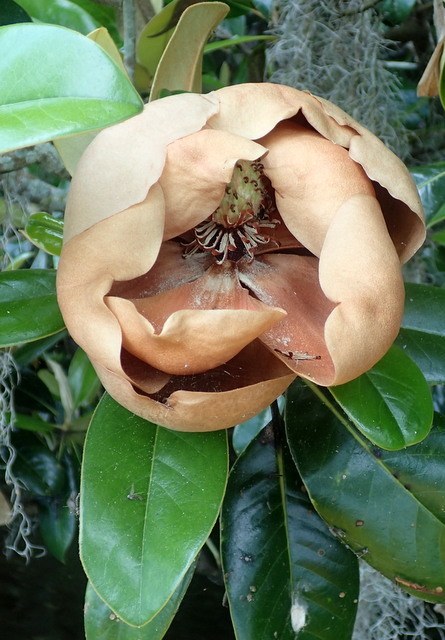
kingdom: Plantae
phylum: Tracheophyta
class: Magnoliopsida
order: Magnoliales
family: Magnoliaceae
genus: Magnolia
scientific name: Magnolia grandiflora
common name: Southern magnolia
